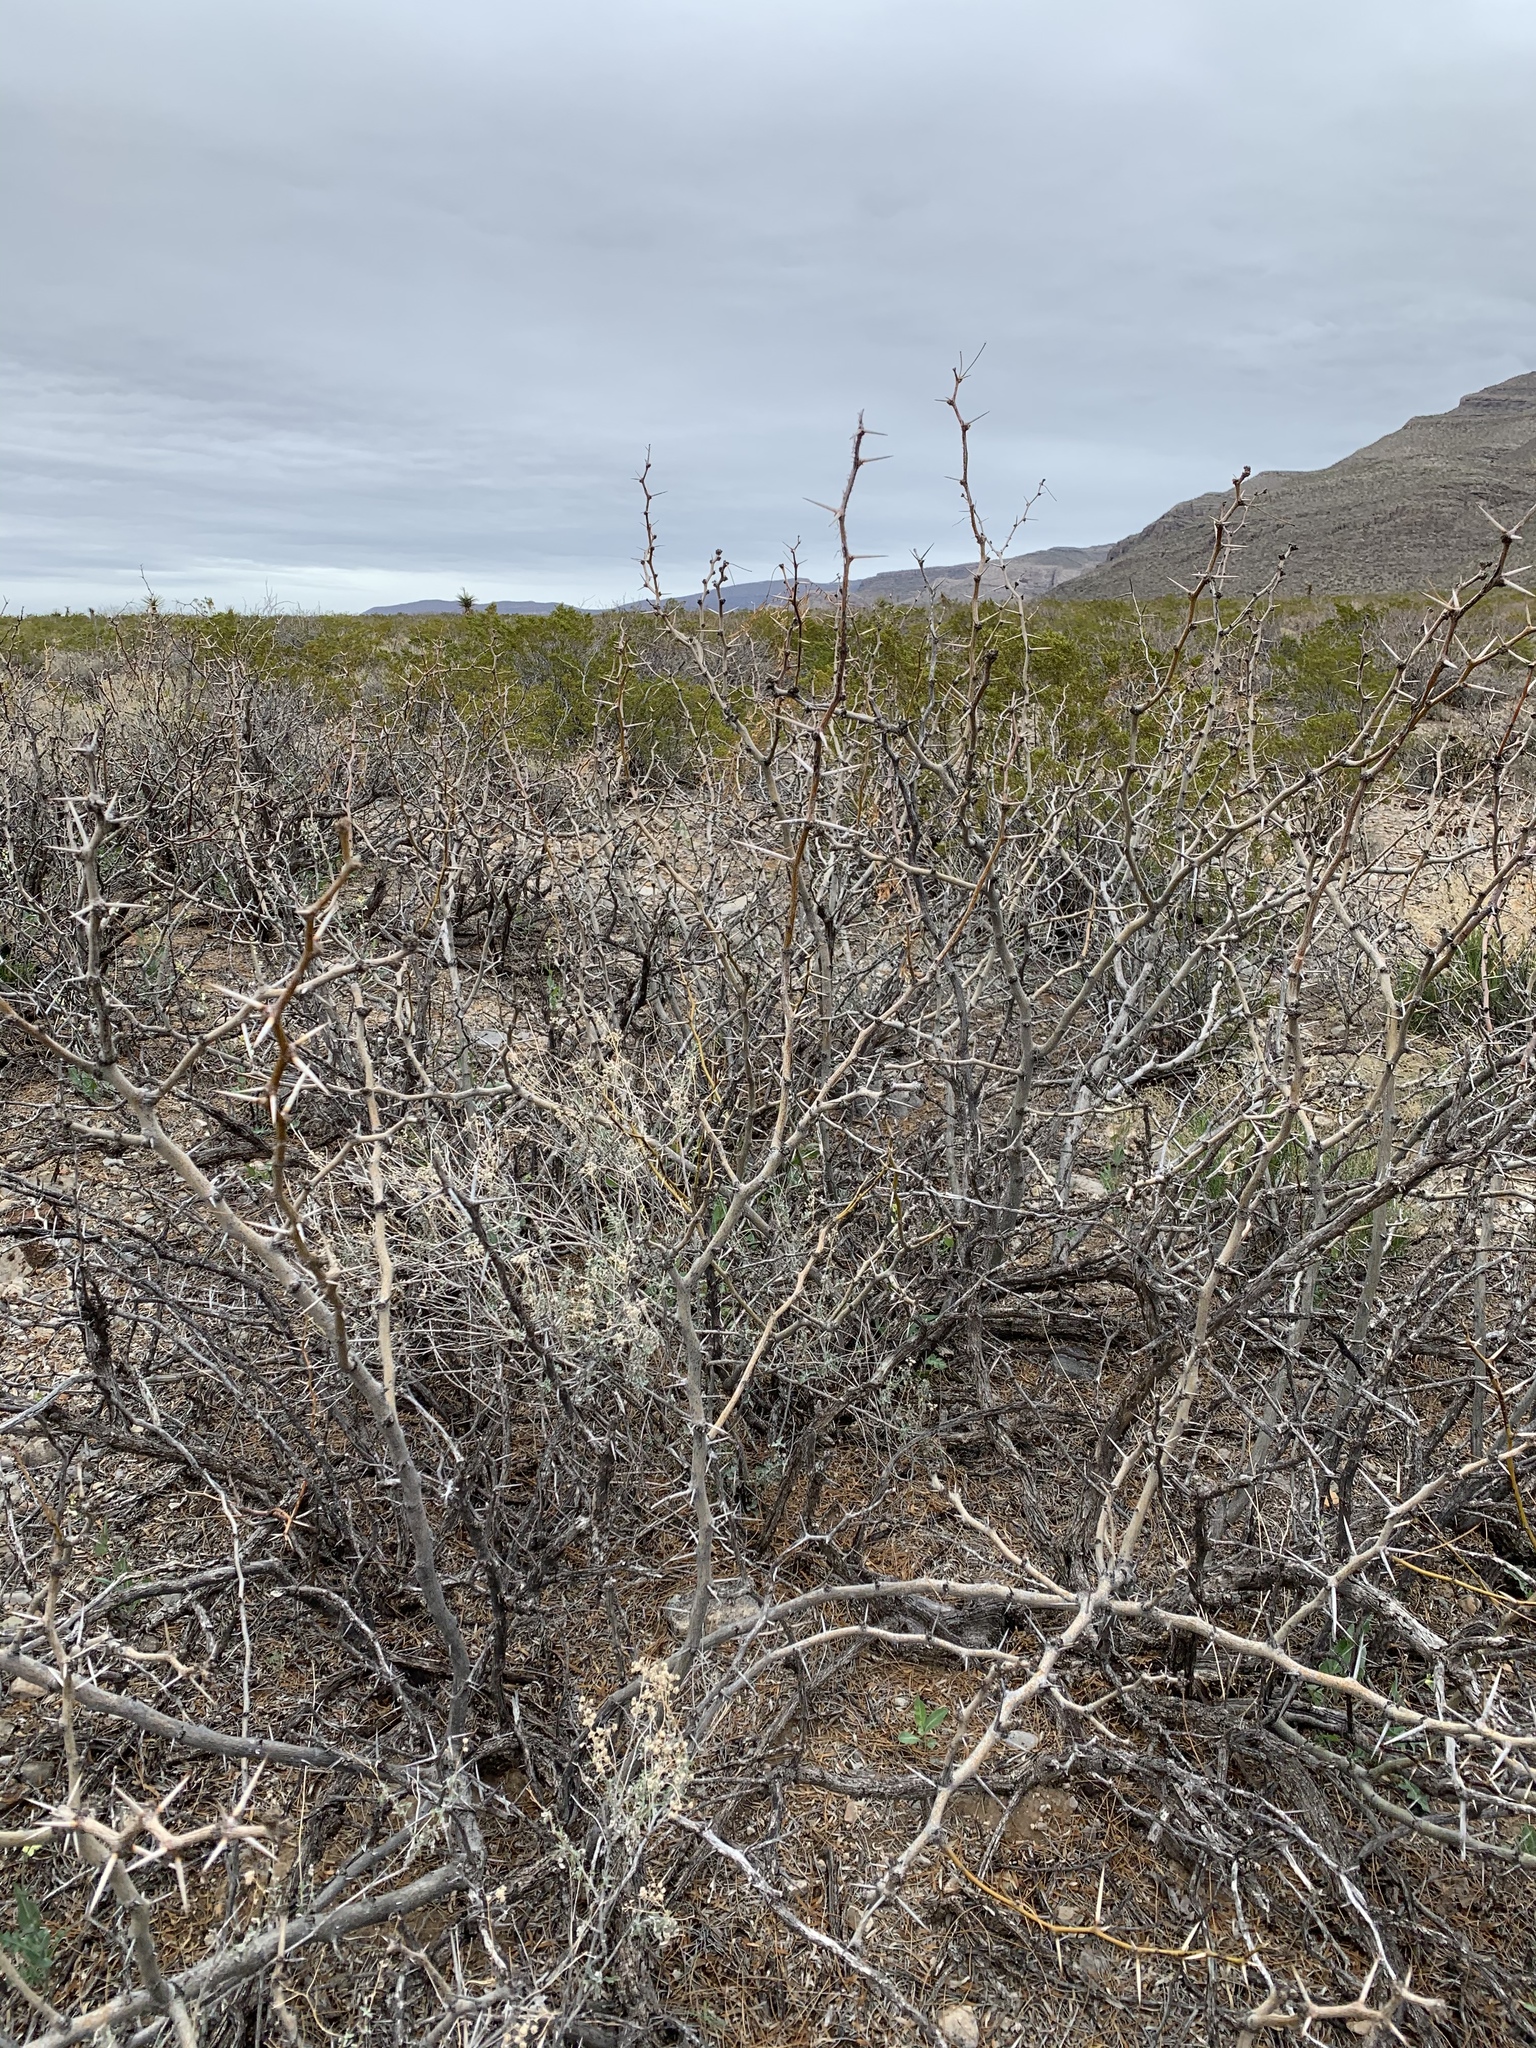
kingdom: Plantae
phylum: Tracheophyta
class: Magnoliopsida
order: Fabales
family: Fabaceae
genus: Prosopis
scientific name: Prosopis glandulosa
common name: Honey mesquite
